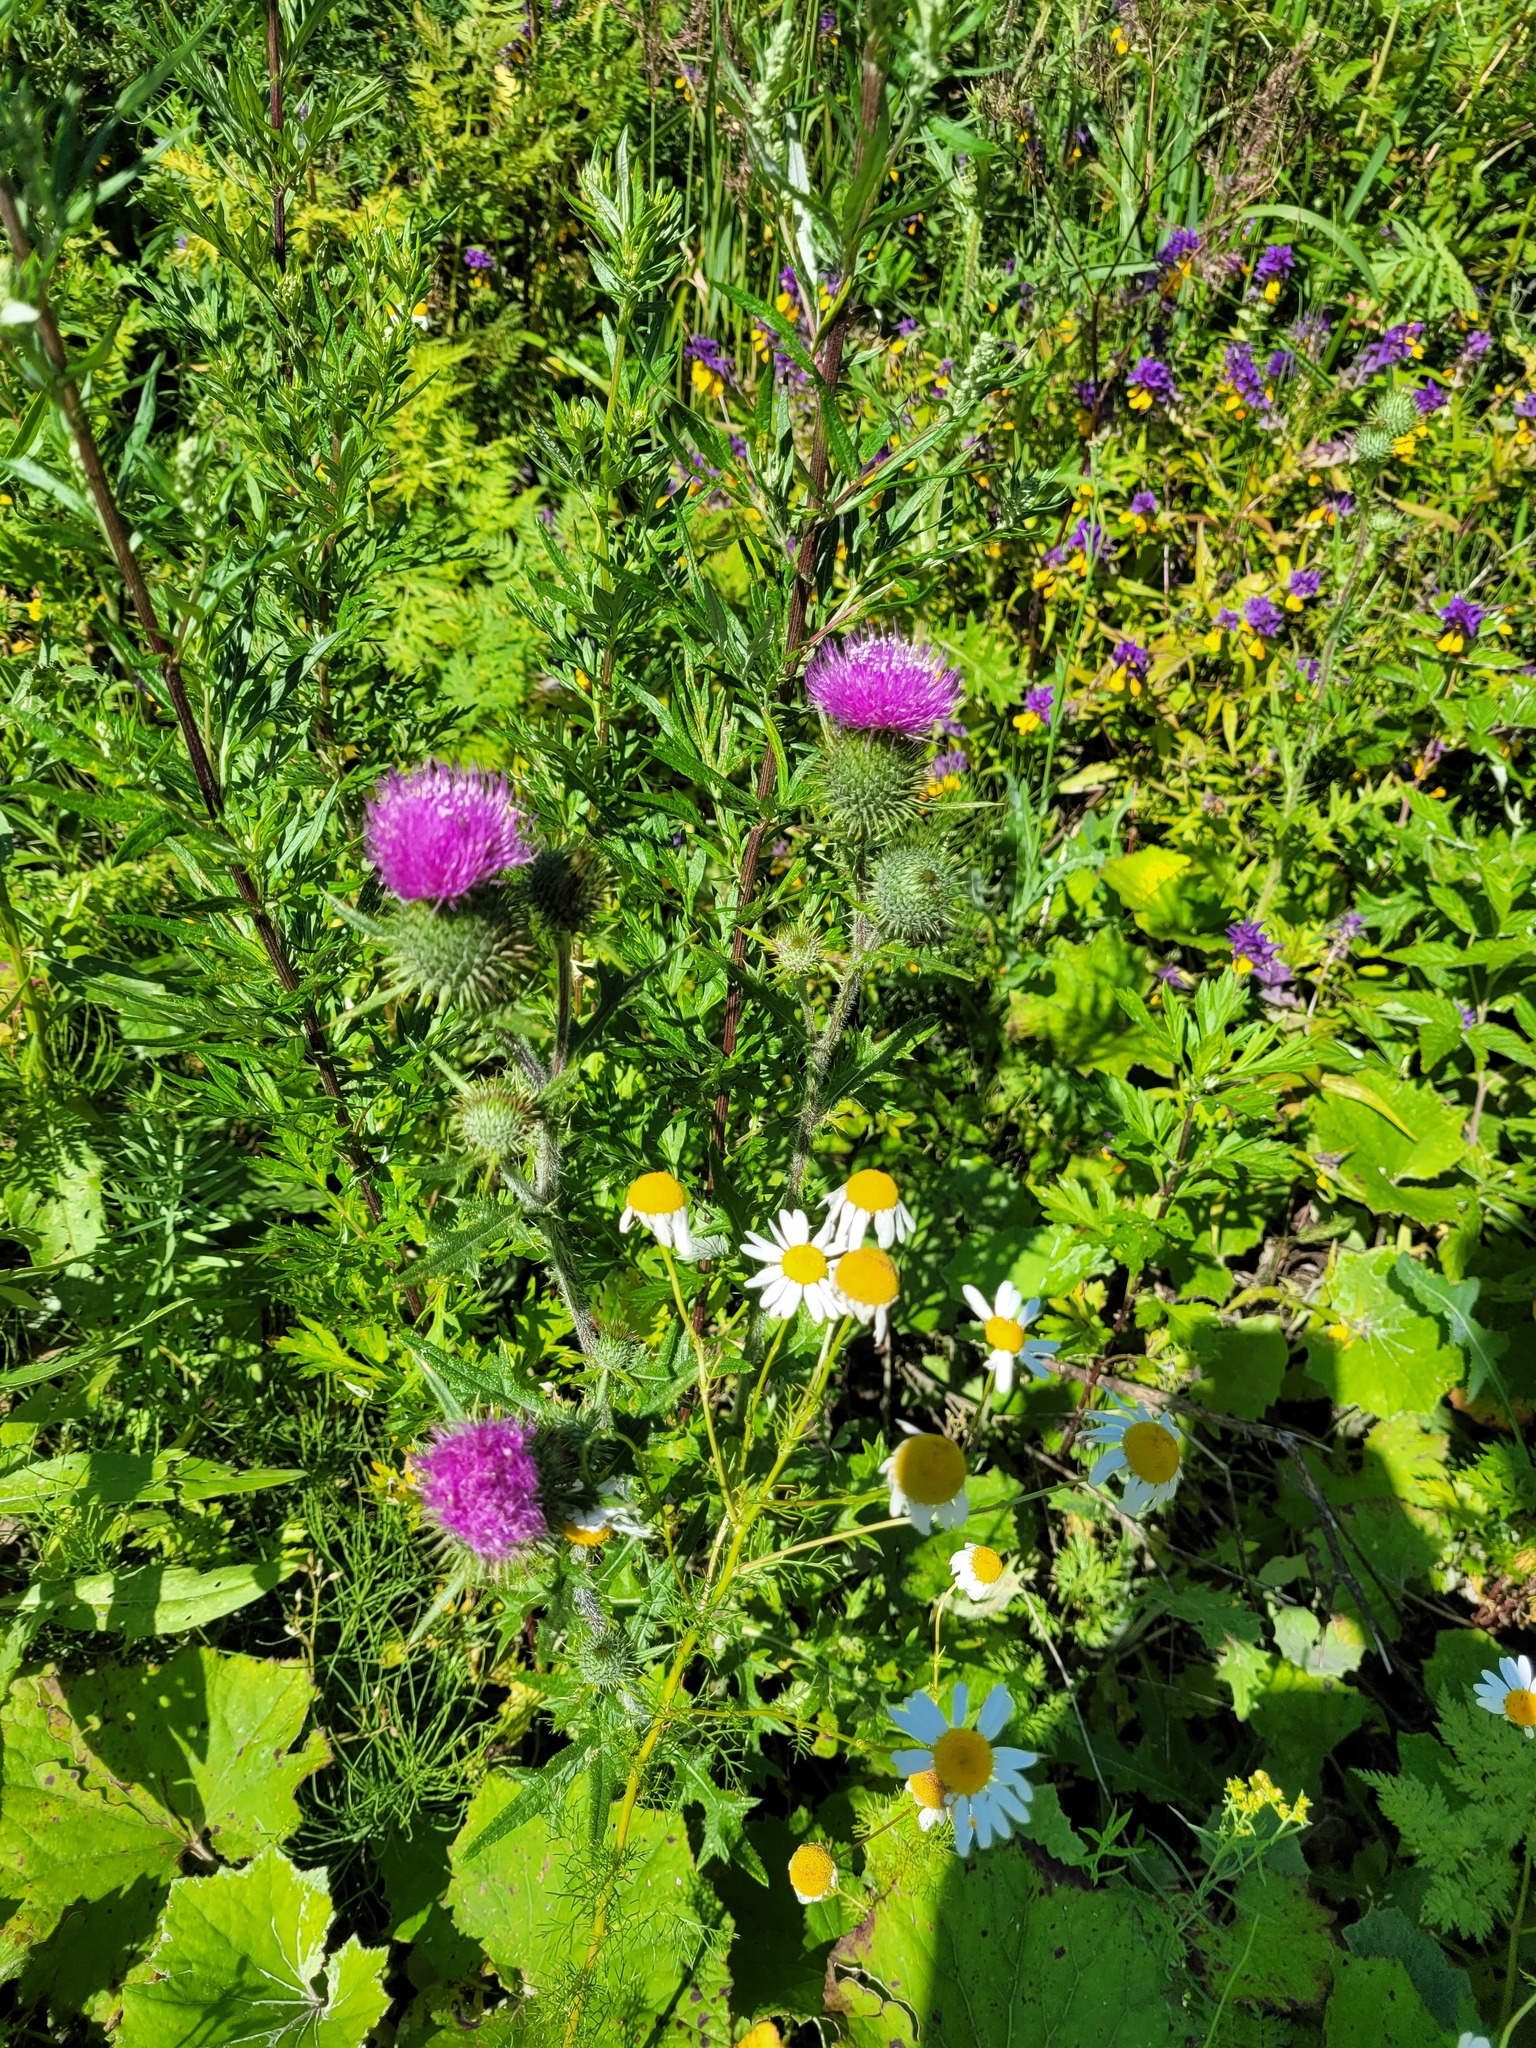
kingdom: Plantae
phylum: Tracheophyta
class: Magnoliopsida
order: Asterales
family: Asteraceae
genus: Tripleurospermum
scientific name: Tripleurospermum inodorum
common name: Scentless mayweed
